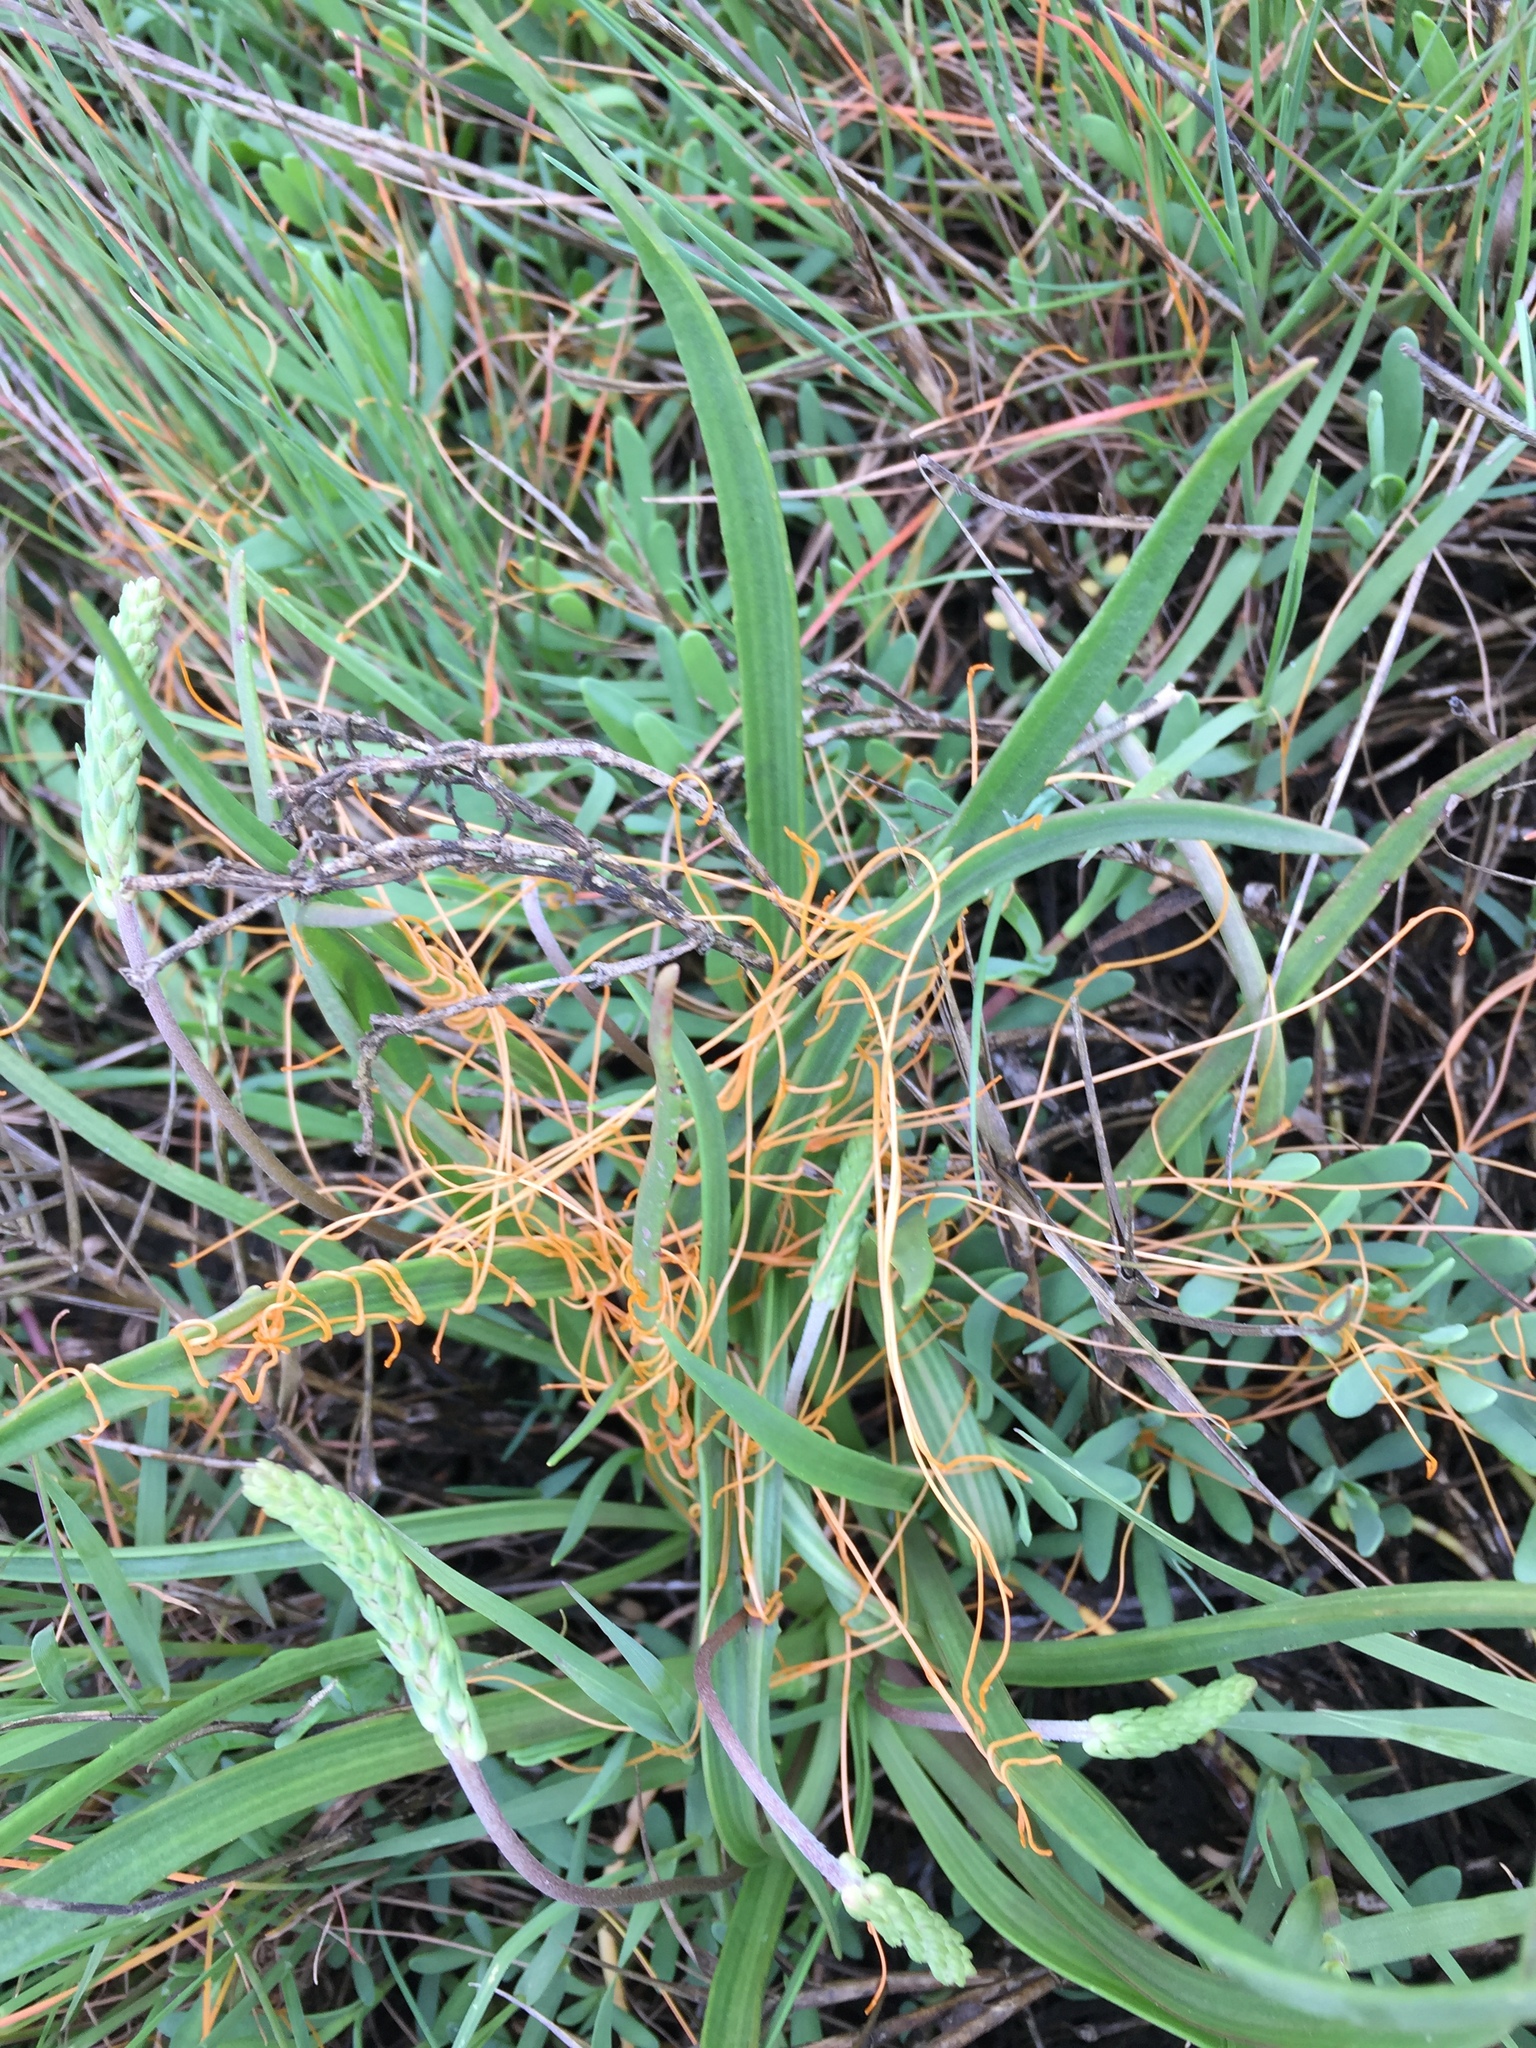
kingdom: Plantae
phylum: Tracheophyta
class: Magnoliopsida
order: Solanales
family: Convolvulaceae
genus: Cuscuta
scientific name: Cuscuta pacifica
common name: Large saltmarsh dodder
